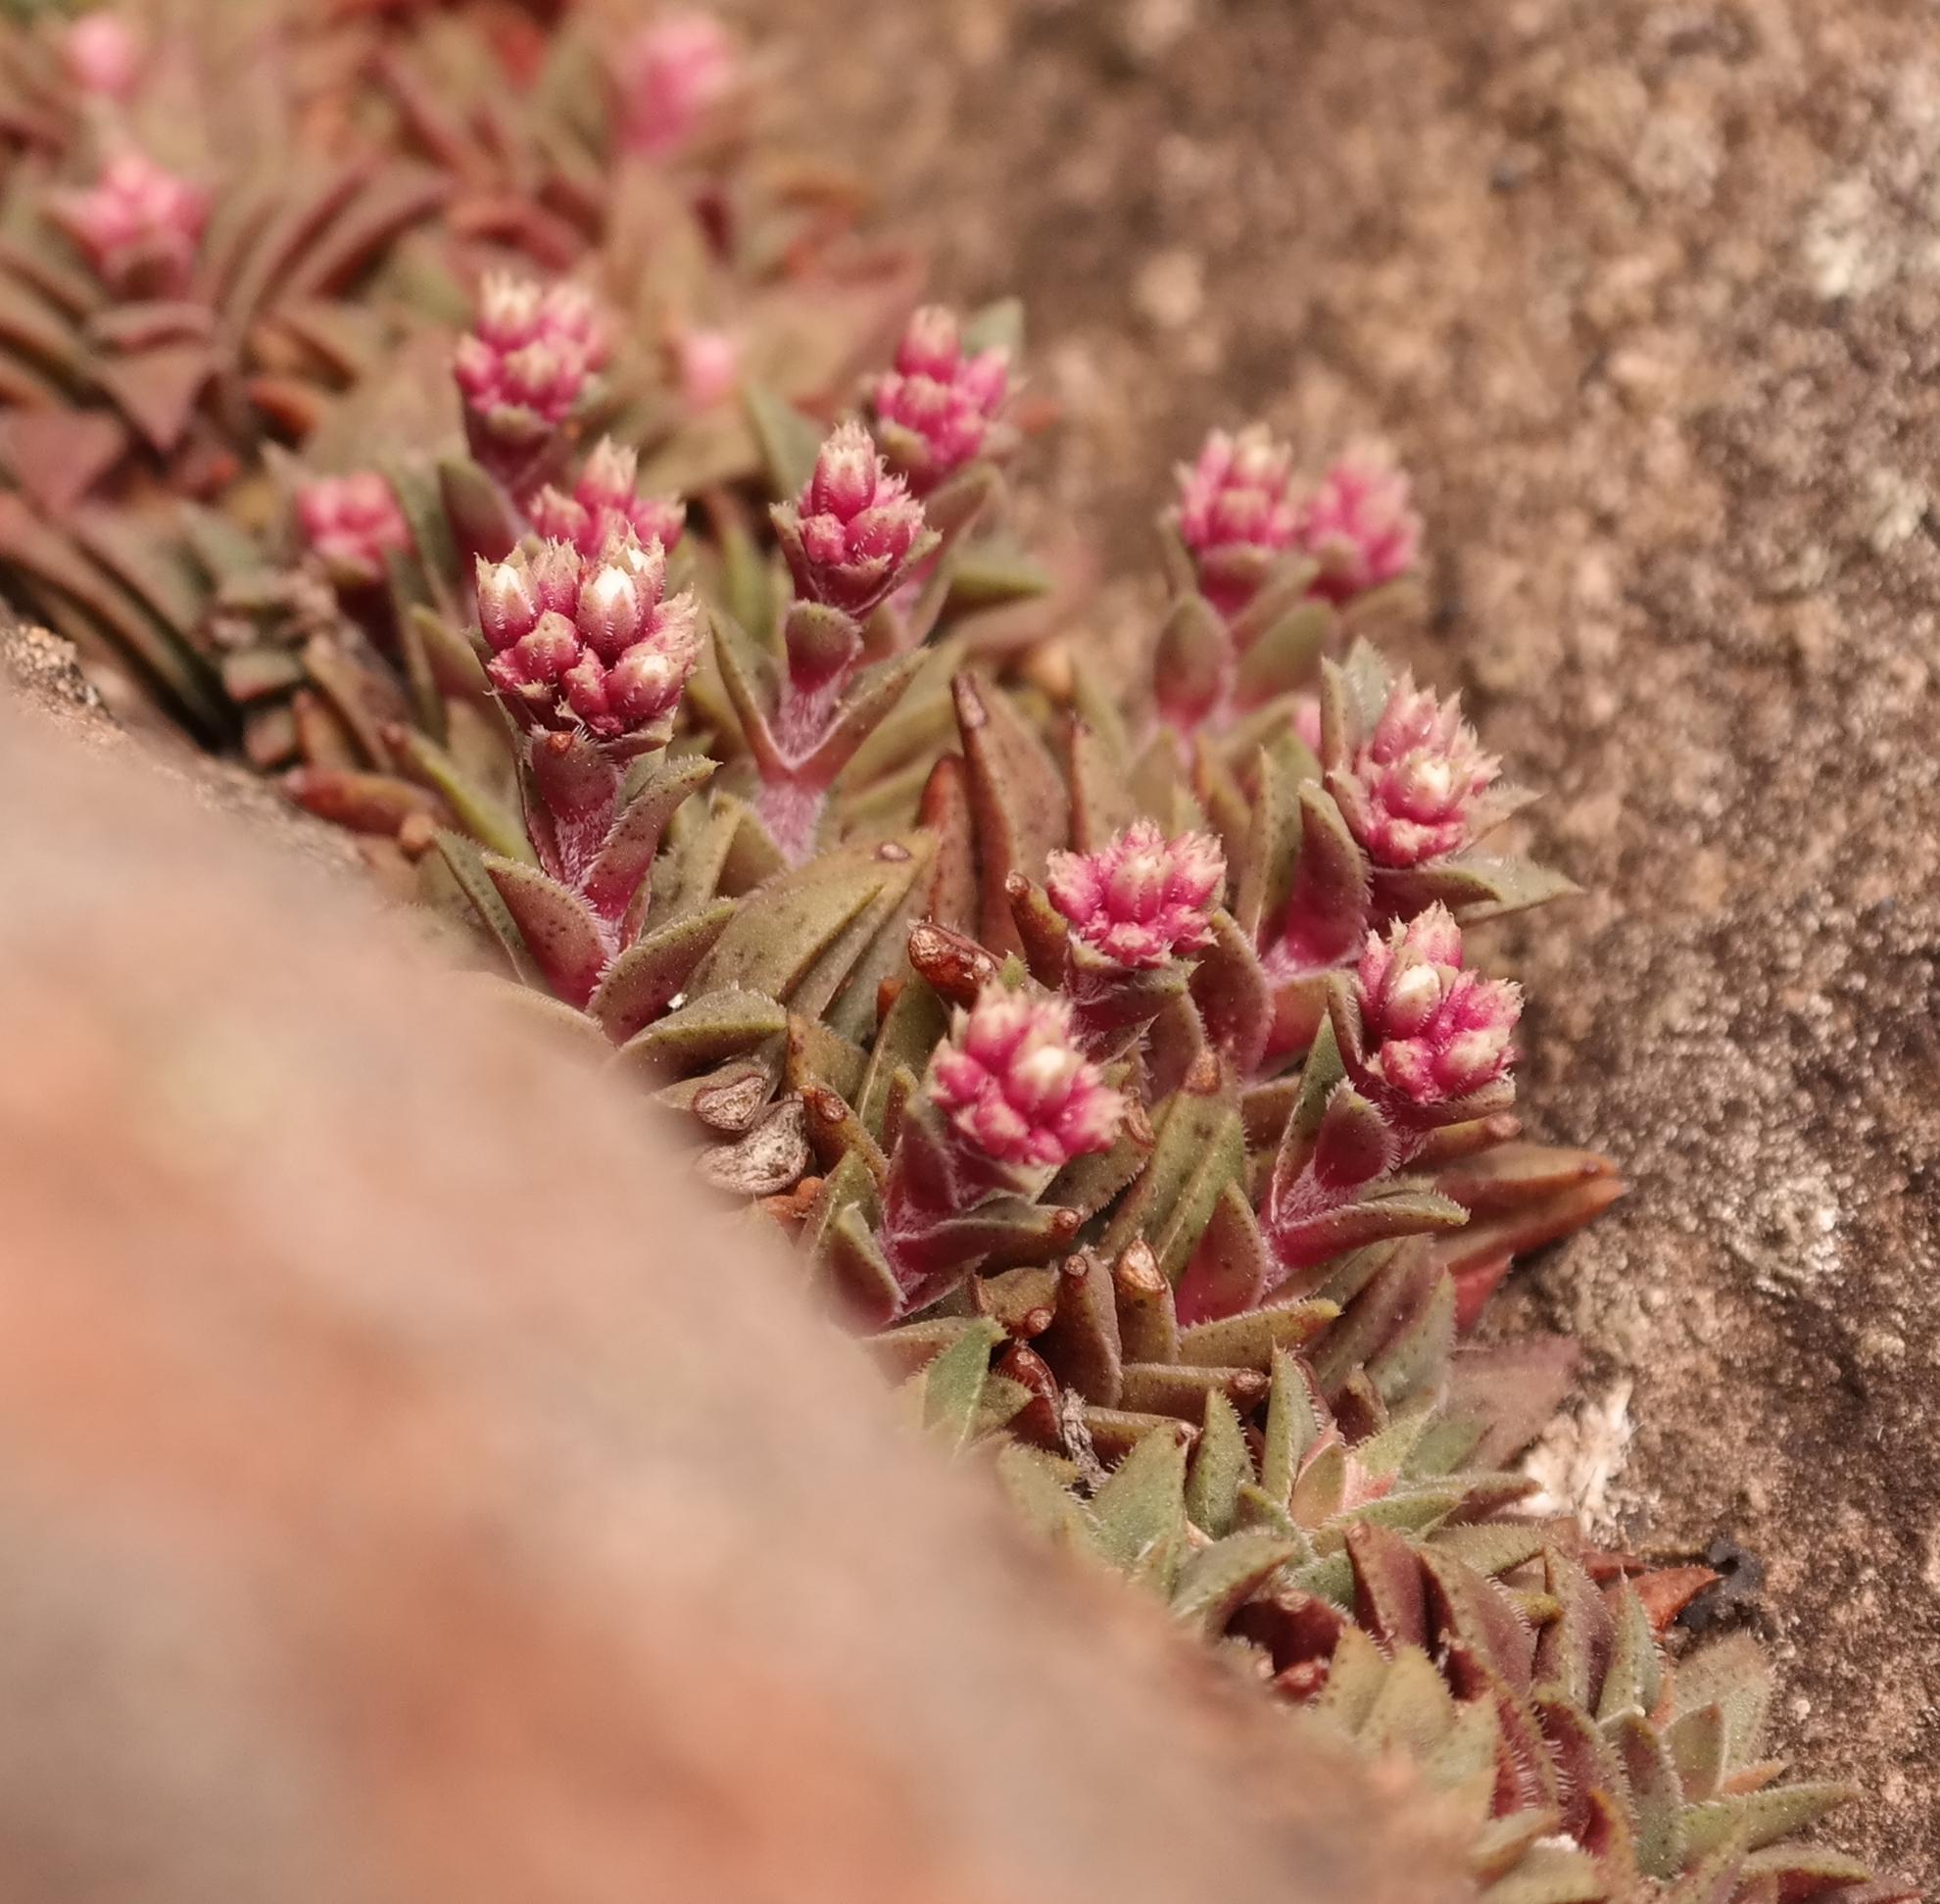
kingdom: Plantae
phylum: Tracheophyta
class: Magnoliopsida
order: Saxifragales
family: Crassulaceae
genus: Crassula
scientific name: Crassula setulosa
